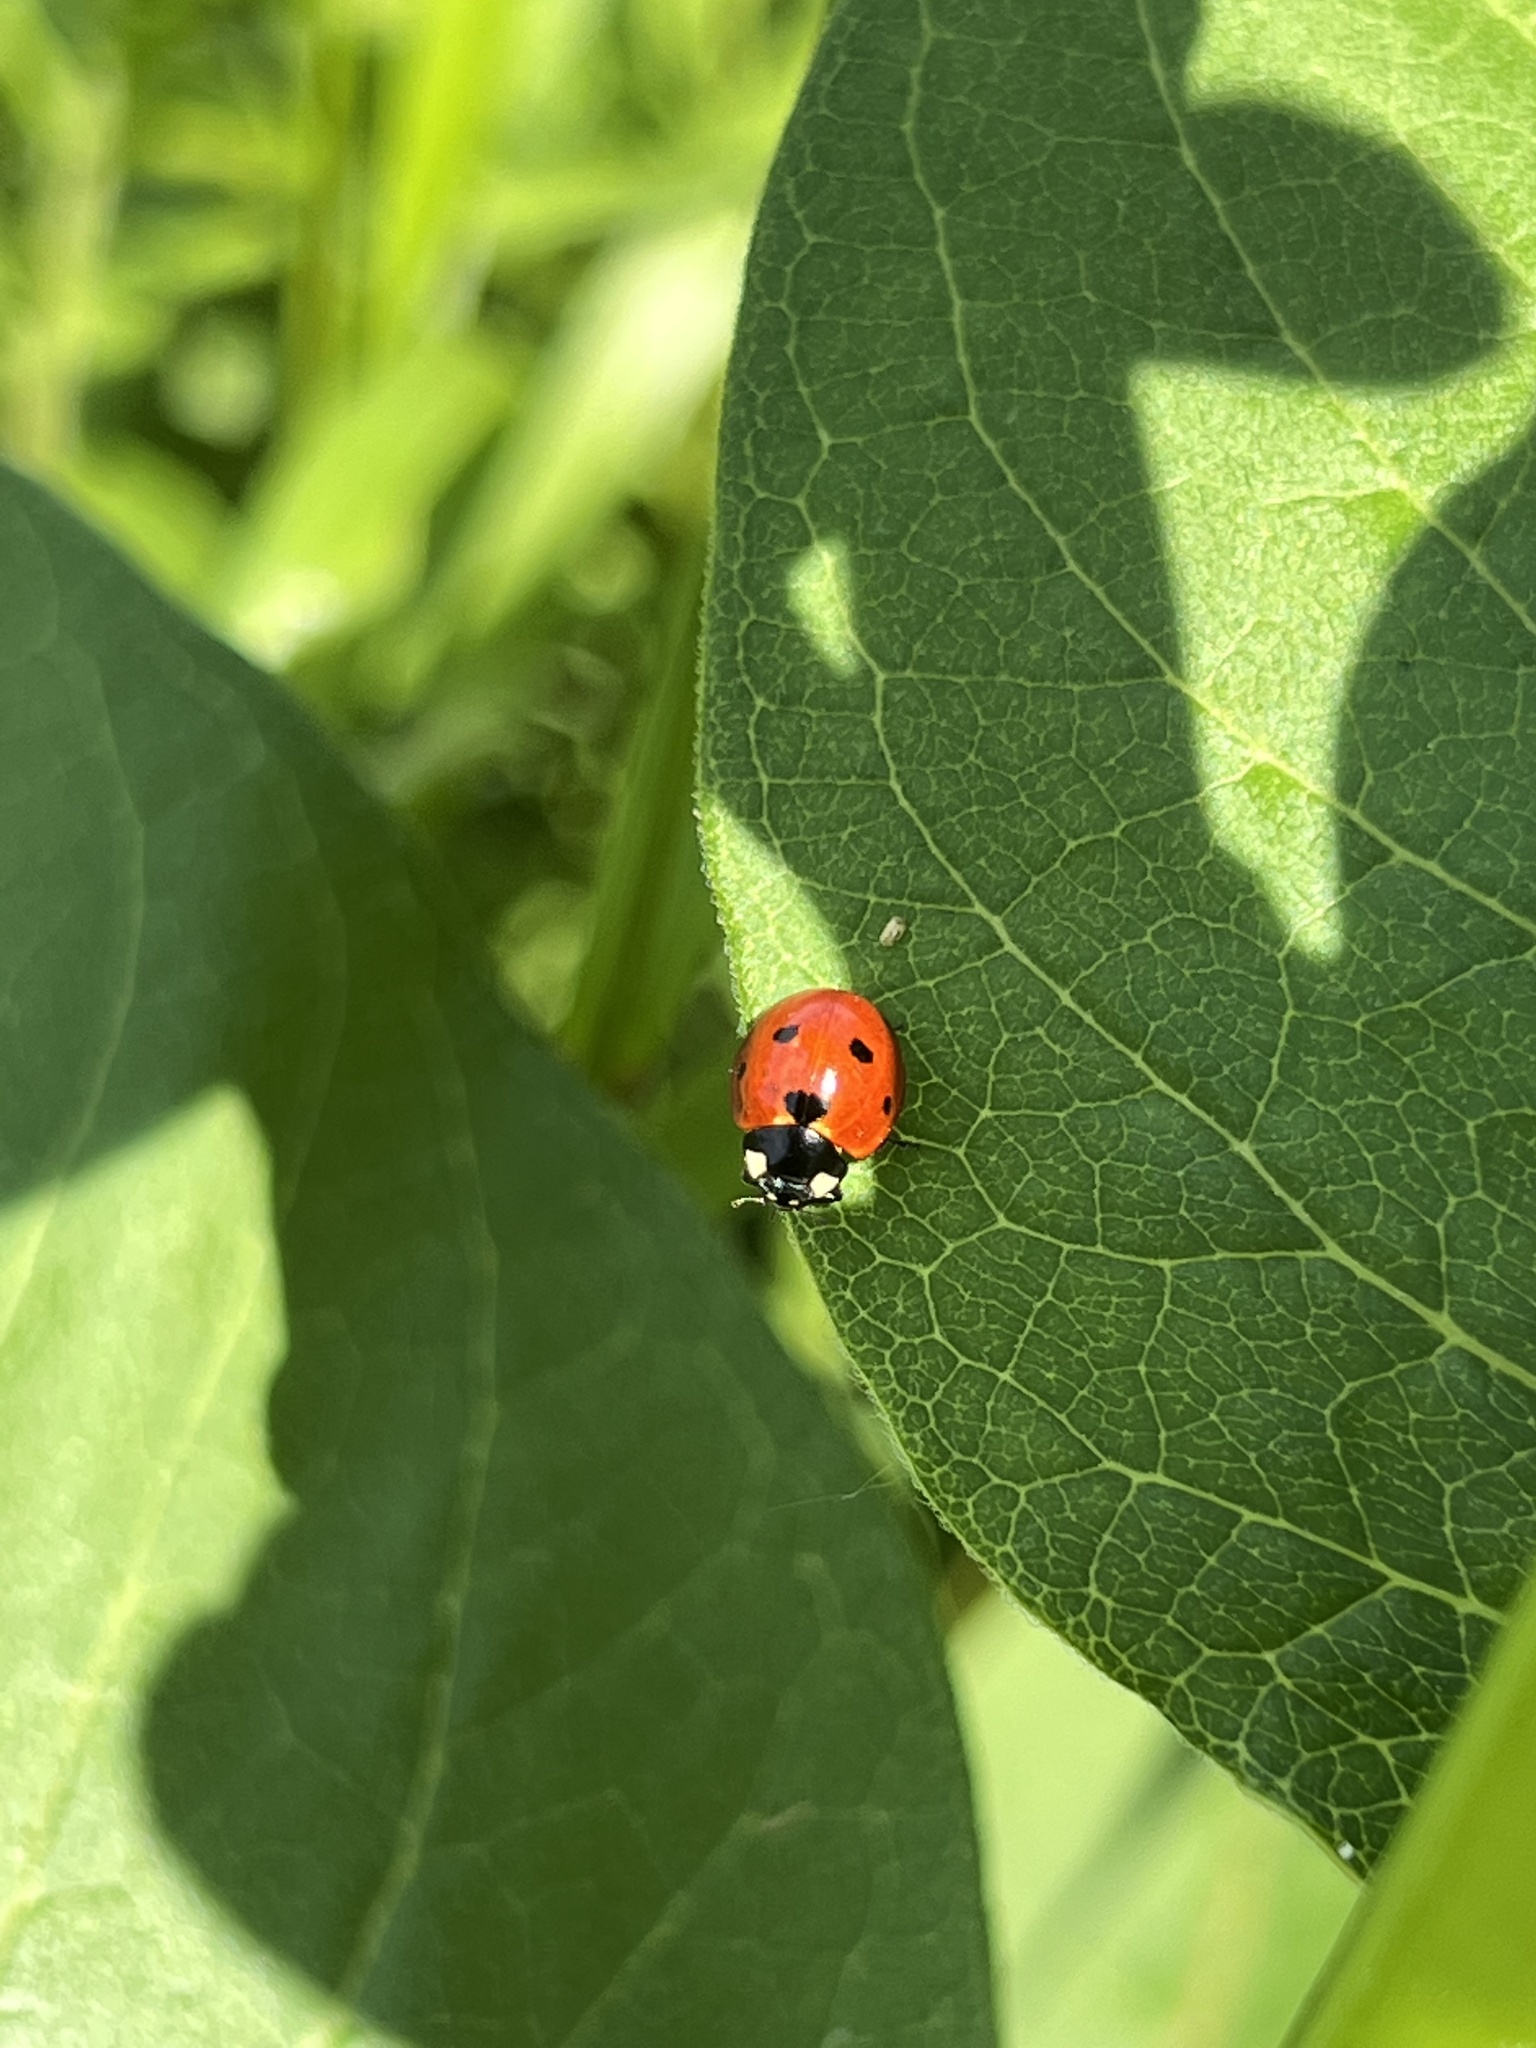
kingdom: Animalia
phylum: Arthropoda
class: Insecta
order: Coleoptera
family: Coccinellidae
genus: Coccinella
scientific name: Coccinella septempunctata
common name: Sevenspotted lady beetle
